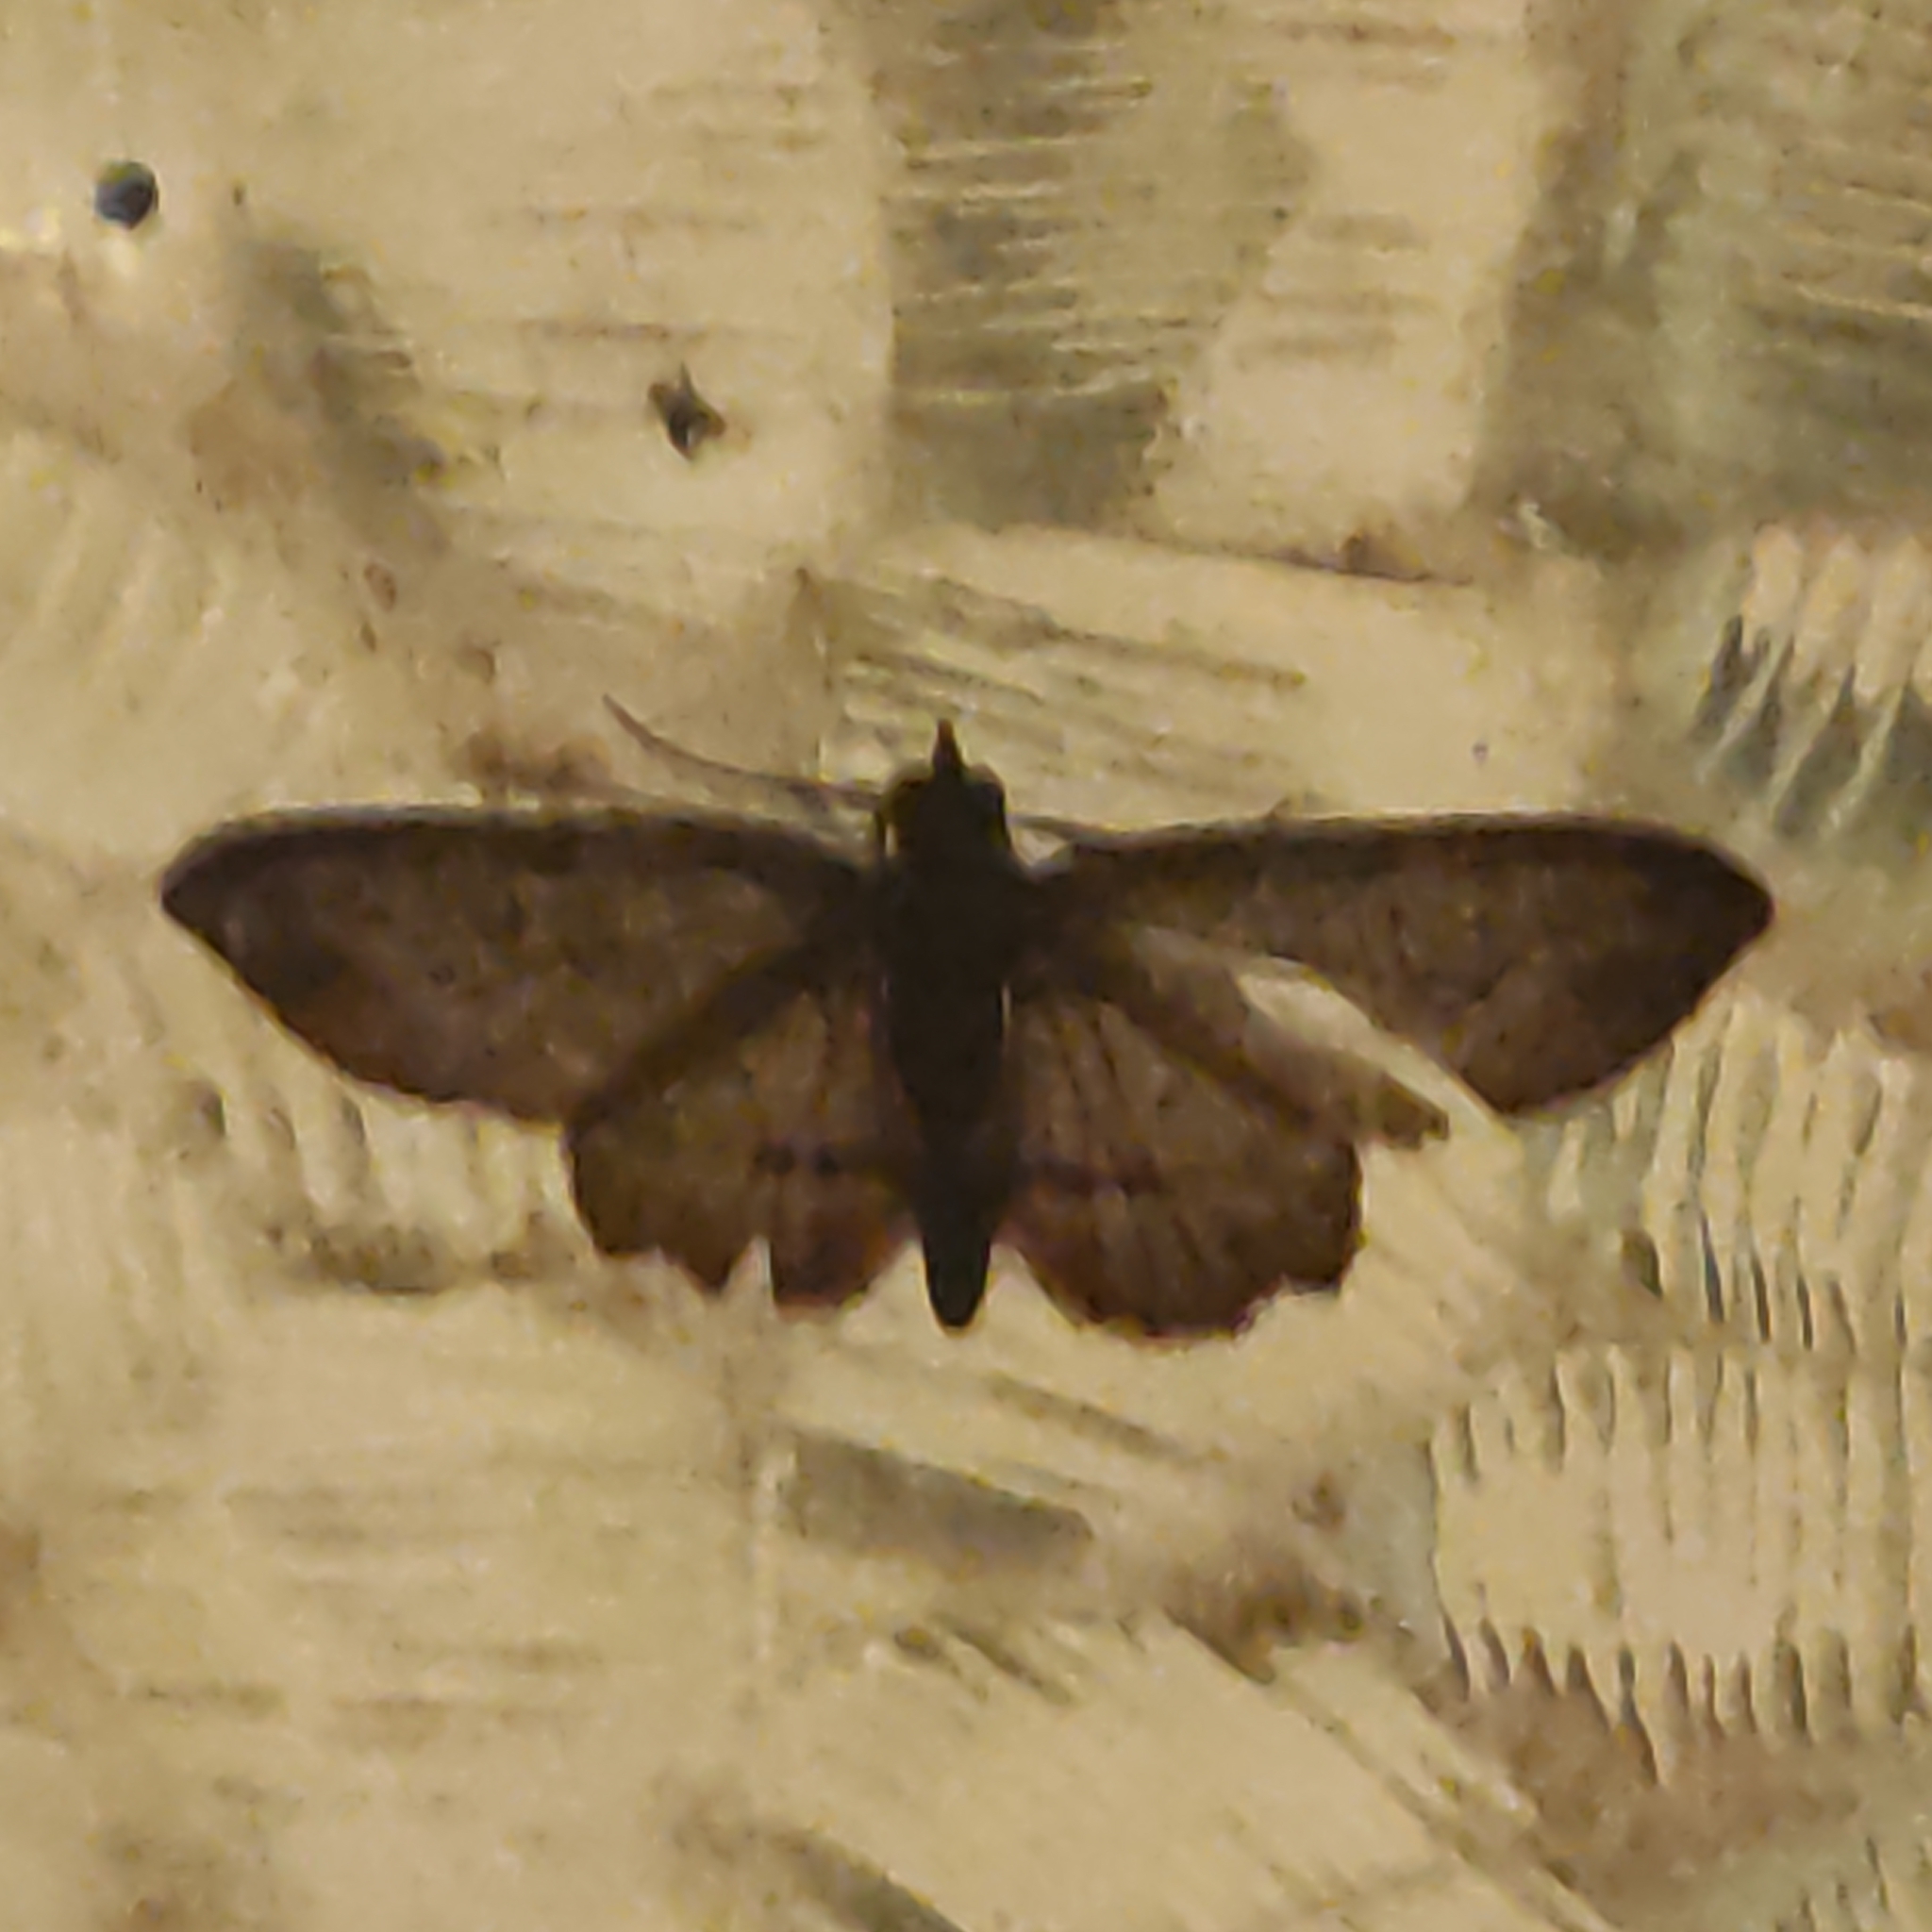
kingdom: Animalia
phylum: Arthropoda
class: Insecta
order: Lepidoptera
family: Geometridae
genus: Chloroclystis
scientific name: Chloroclystis filata
